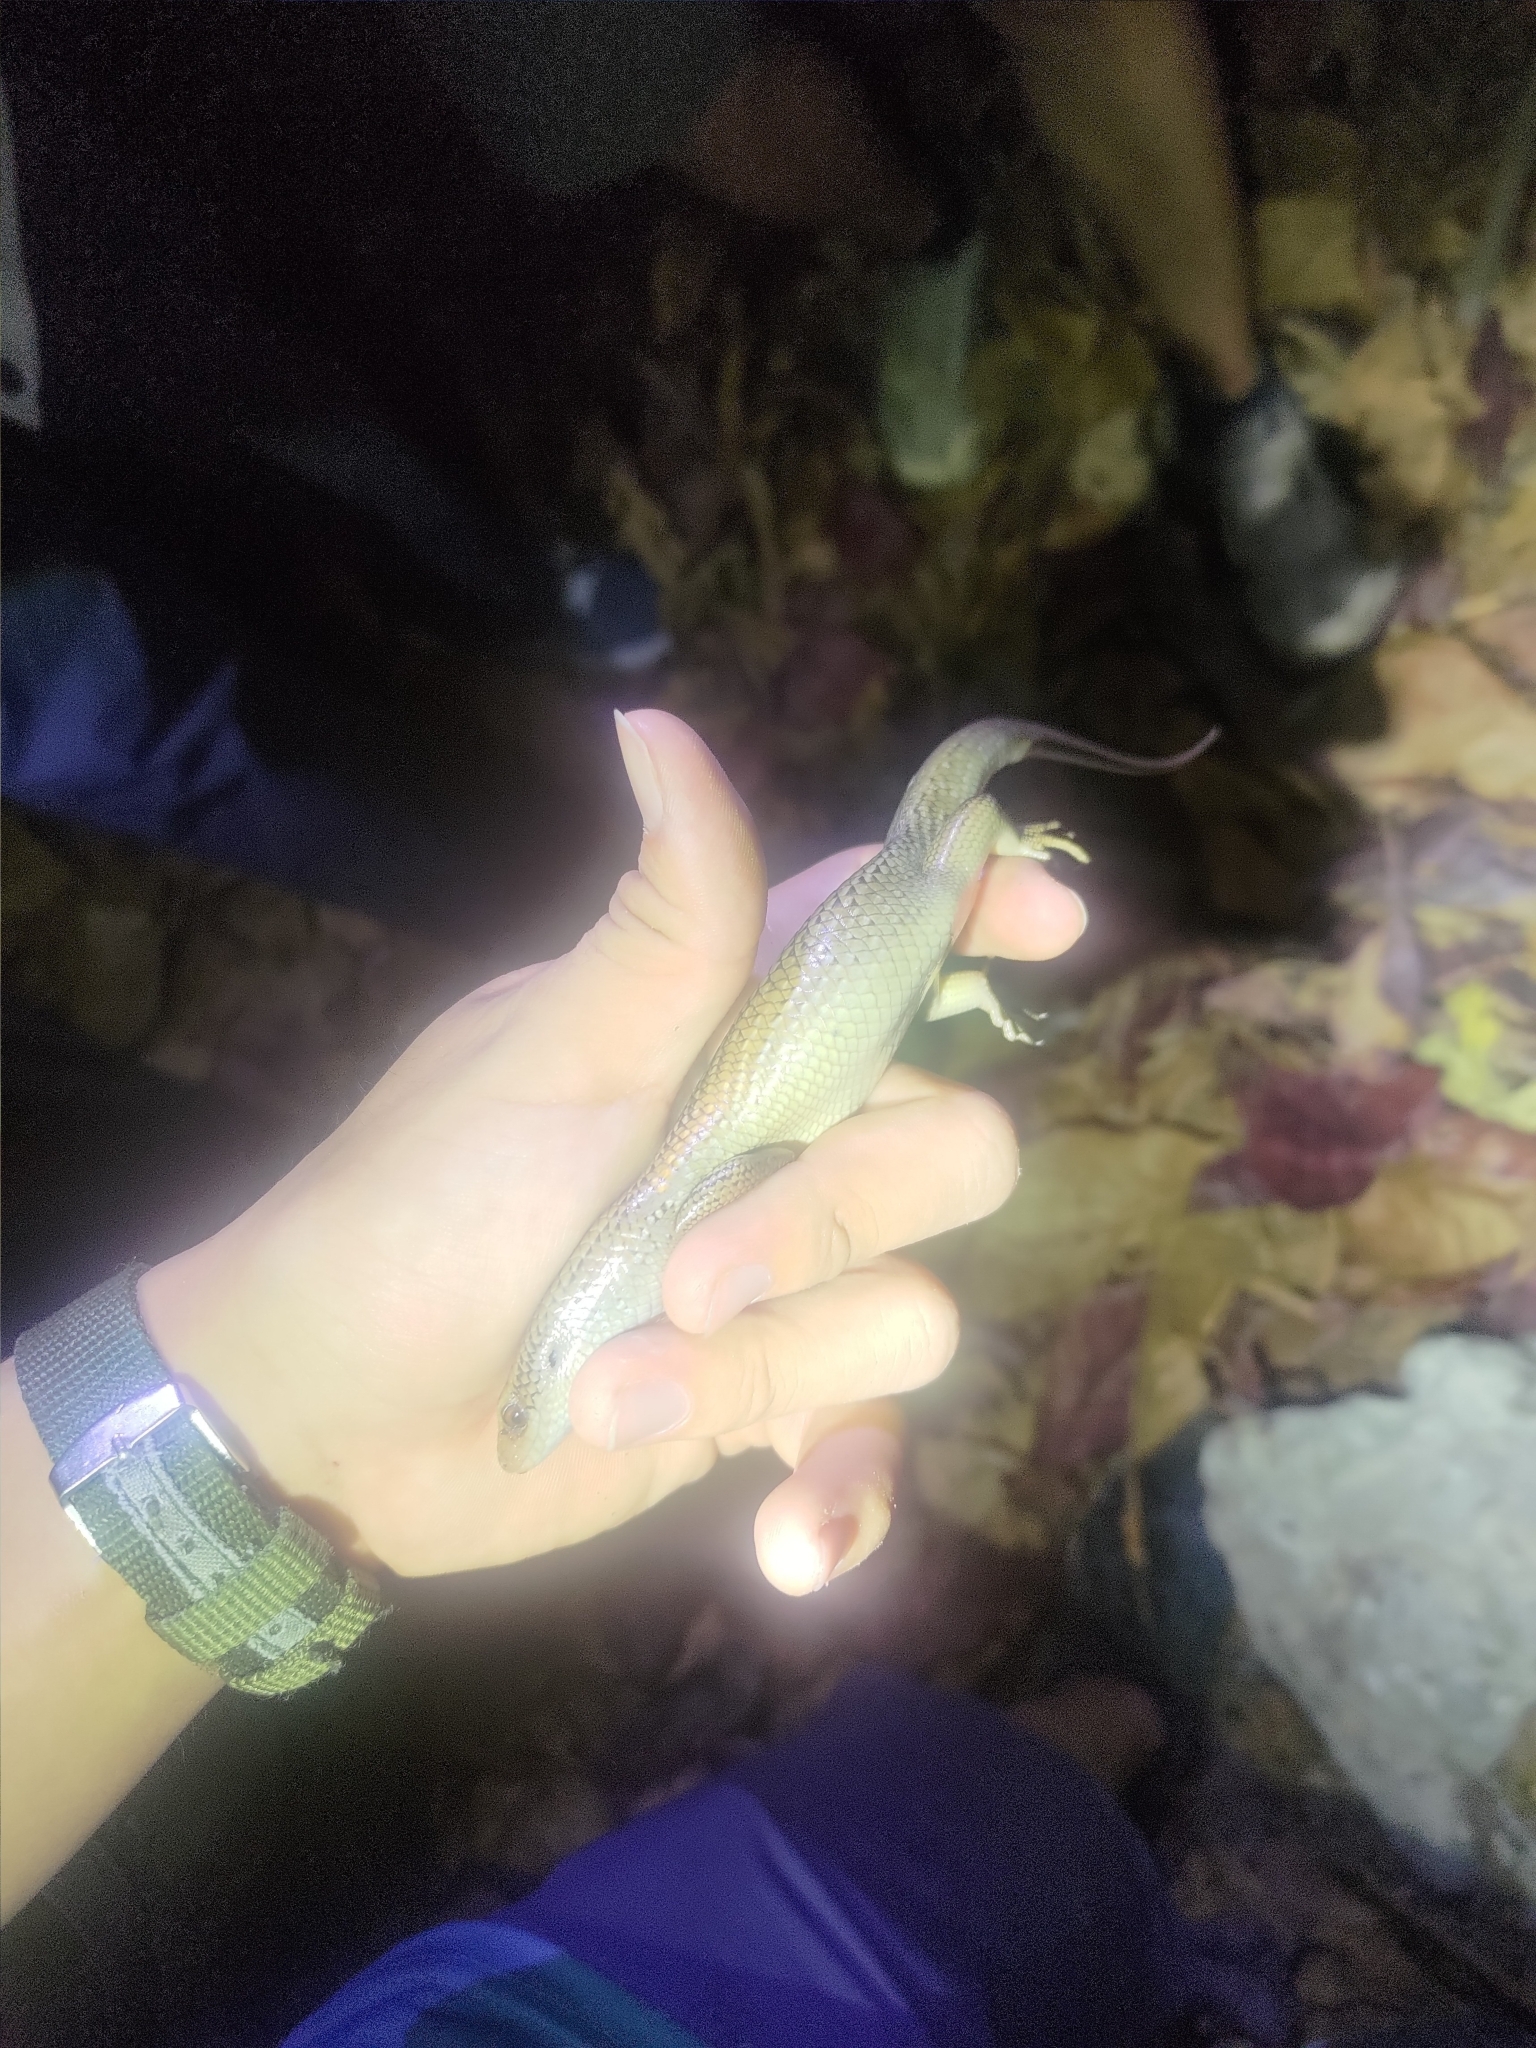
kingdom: Animalia
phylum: Chordata
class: Squamata
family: Scincidae
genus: Eutropis
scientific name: Eutropis multifasciata
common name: Common mabuya
